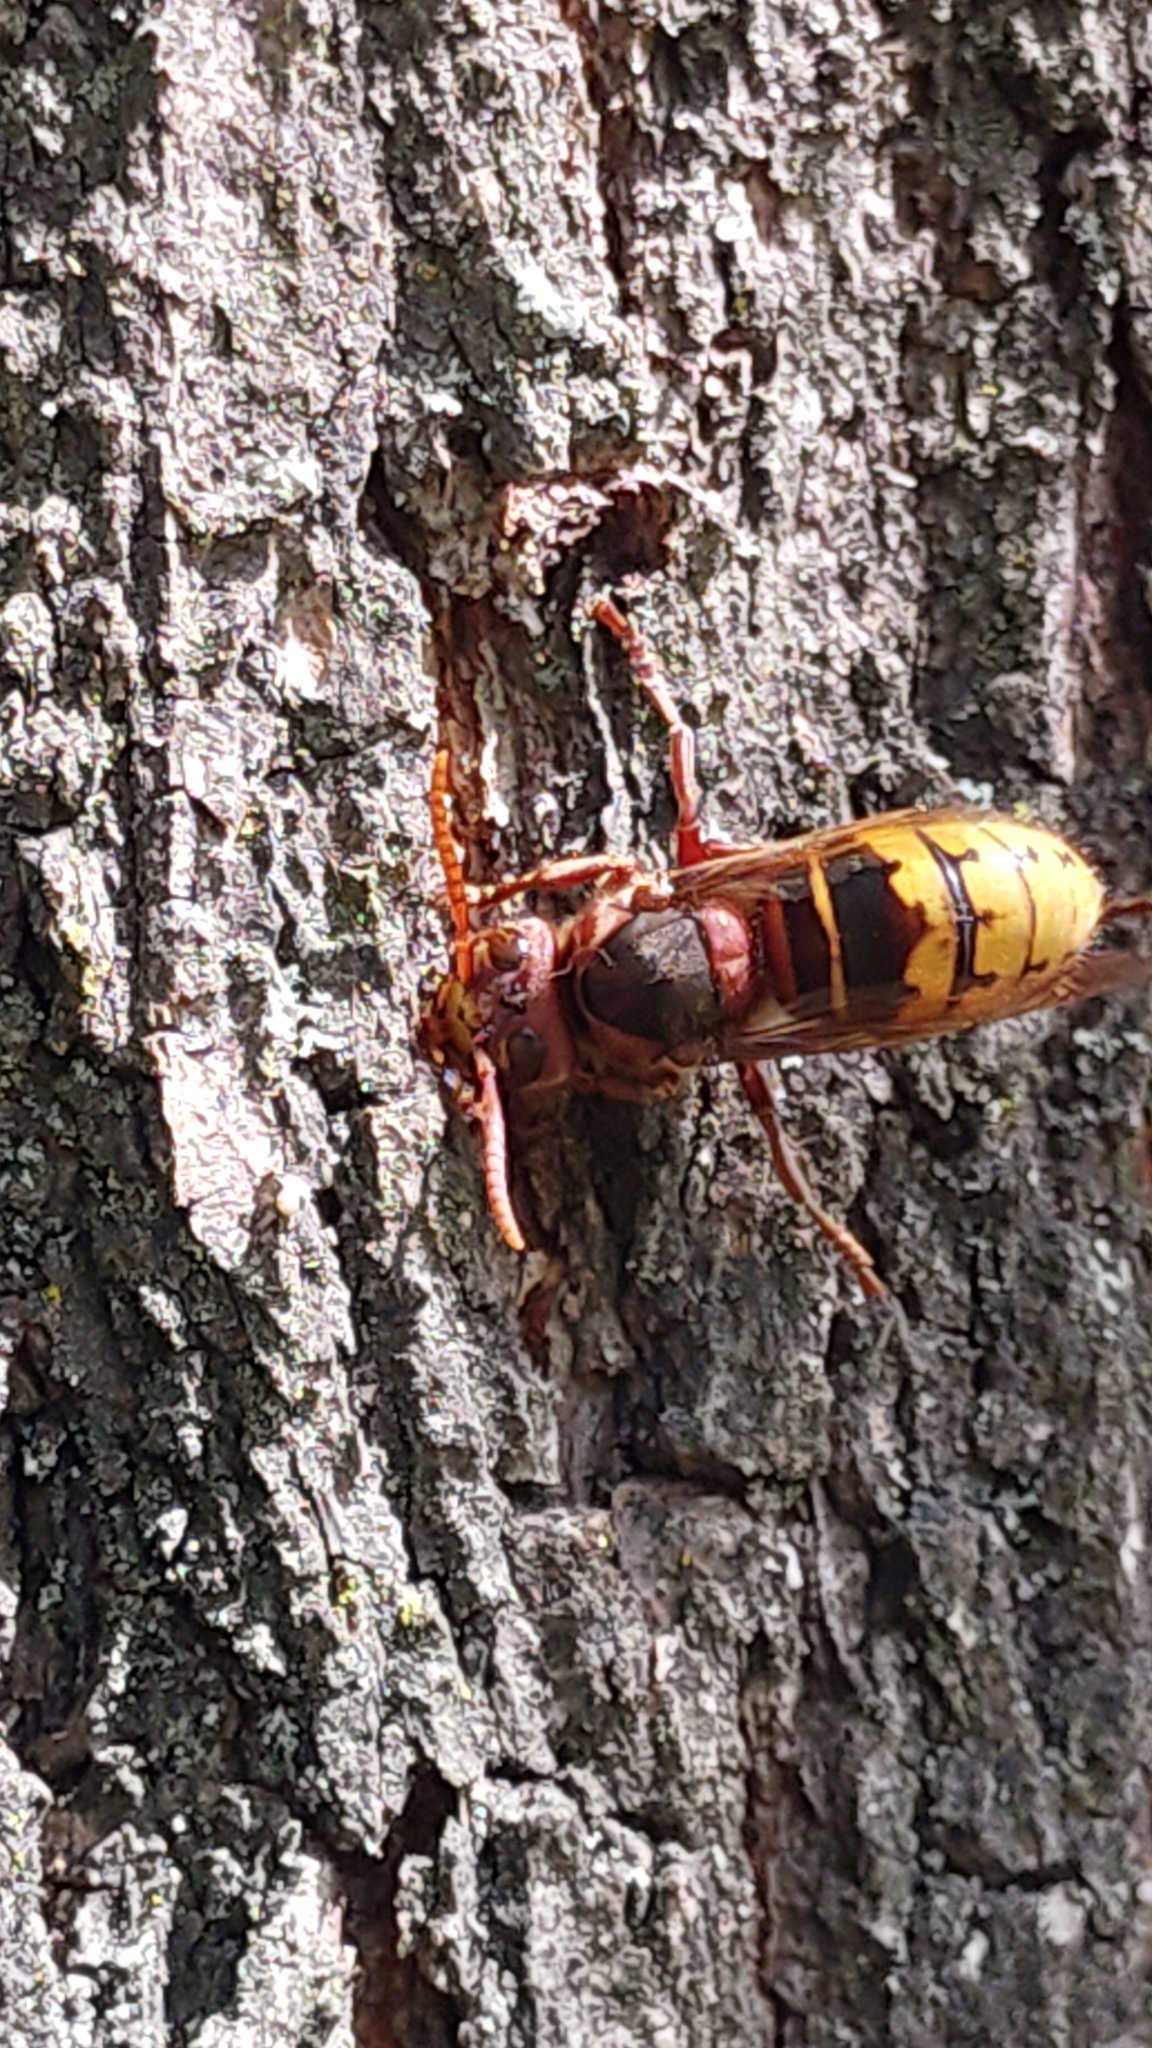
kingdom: Animalia
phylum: Arthropoda
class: Insecta
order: Hymenoptera
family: Vespidae
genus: Vespa
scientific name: Vespa crabro
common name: Hornet
